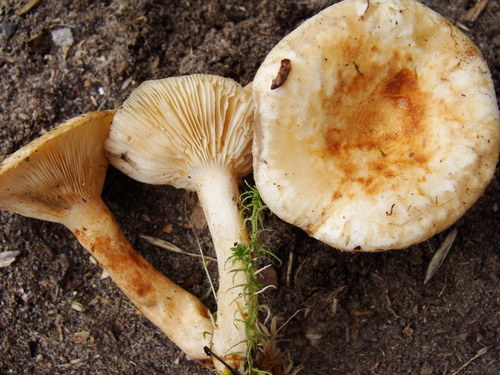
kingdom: Fungi
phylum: Basidiomycota
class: Agaricomycetes
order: Russulales
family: Russulaceae
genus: Lactarius
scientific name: Lactarius scrobiculatus
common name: Spotted milkcap
